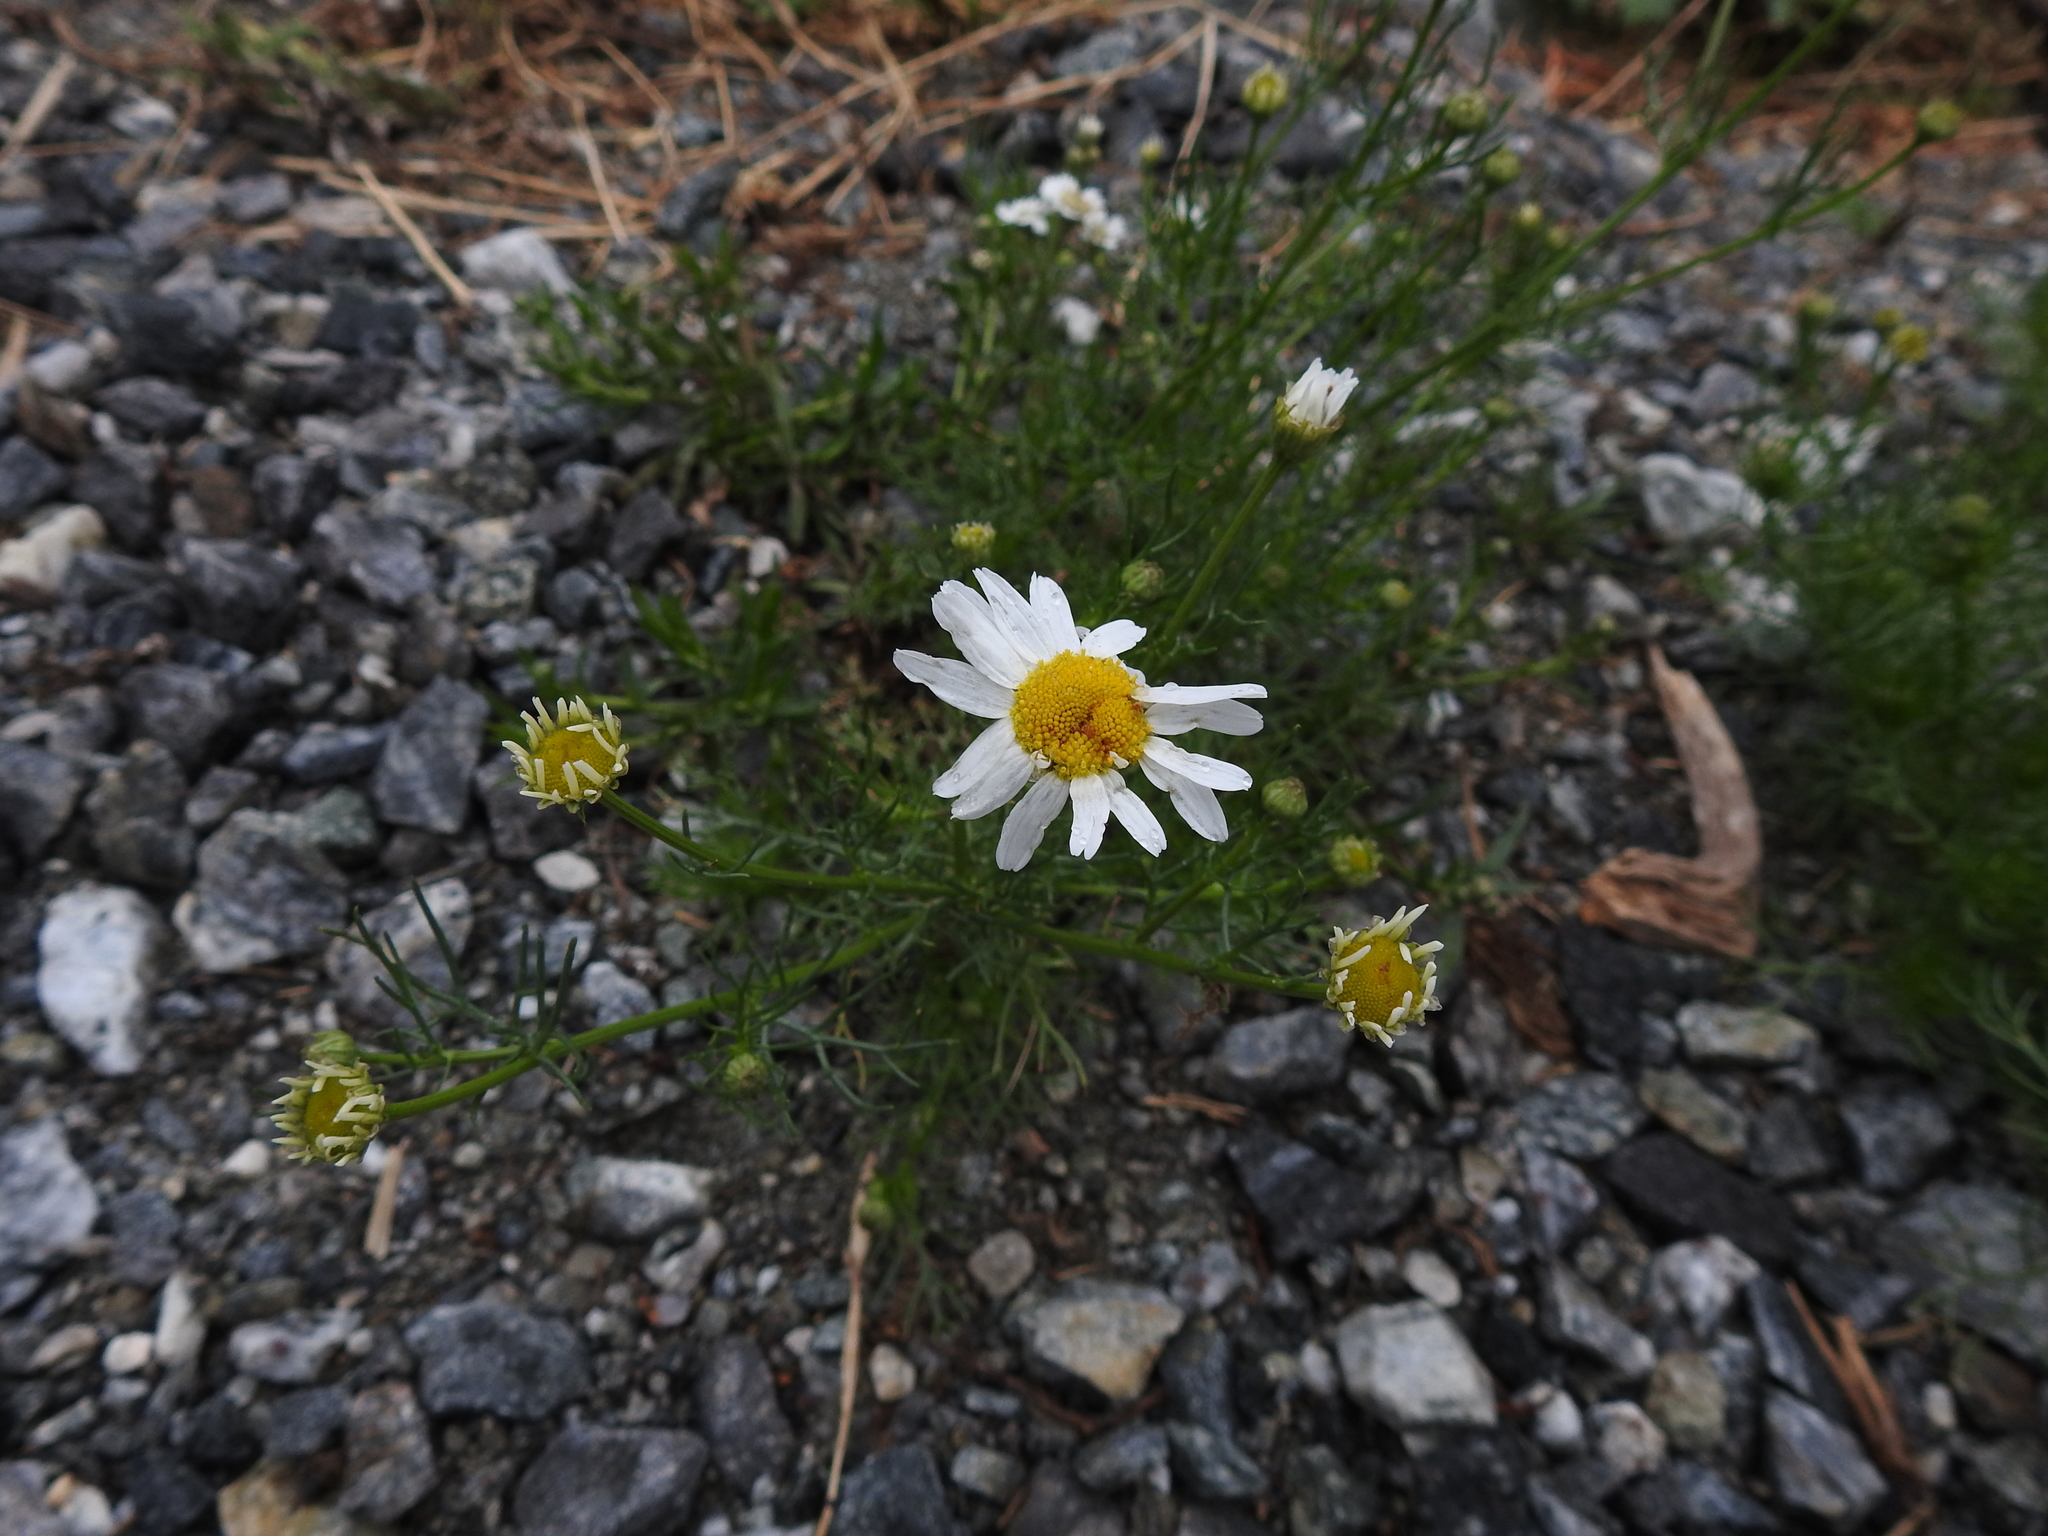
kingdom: Plantae
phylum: Tracheophyta
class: Magnoliopsida
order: Asterales
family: Asteraceae
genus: Tripleurospermum
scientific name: Tripleurospermum inodorum
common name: Scentless mayweed
